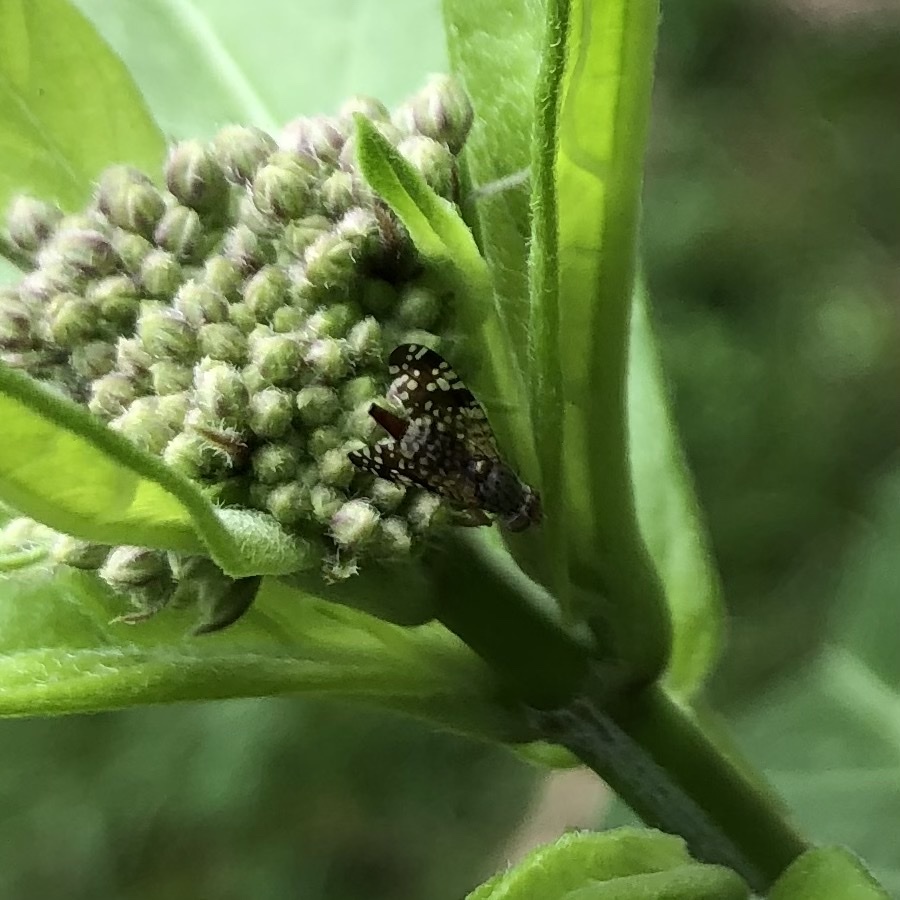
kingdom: Animalia
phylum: Arthropoda
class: Insecta
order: Diptera
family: Tephritidae
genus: Neotephritis
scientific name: Neotephritis finalis
